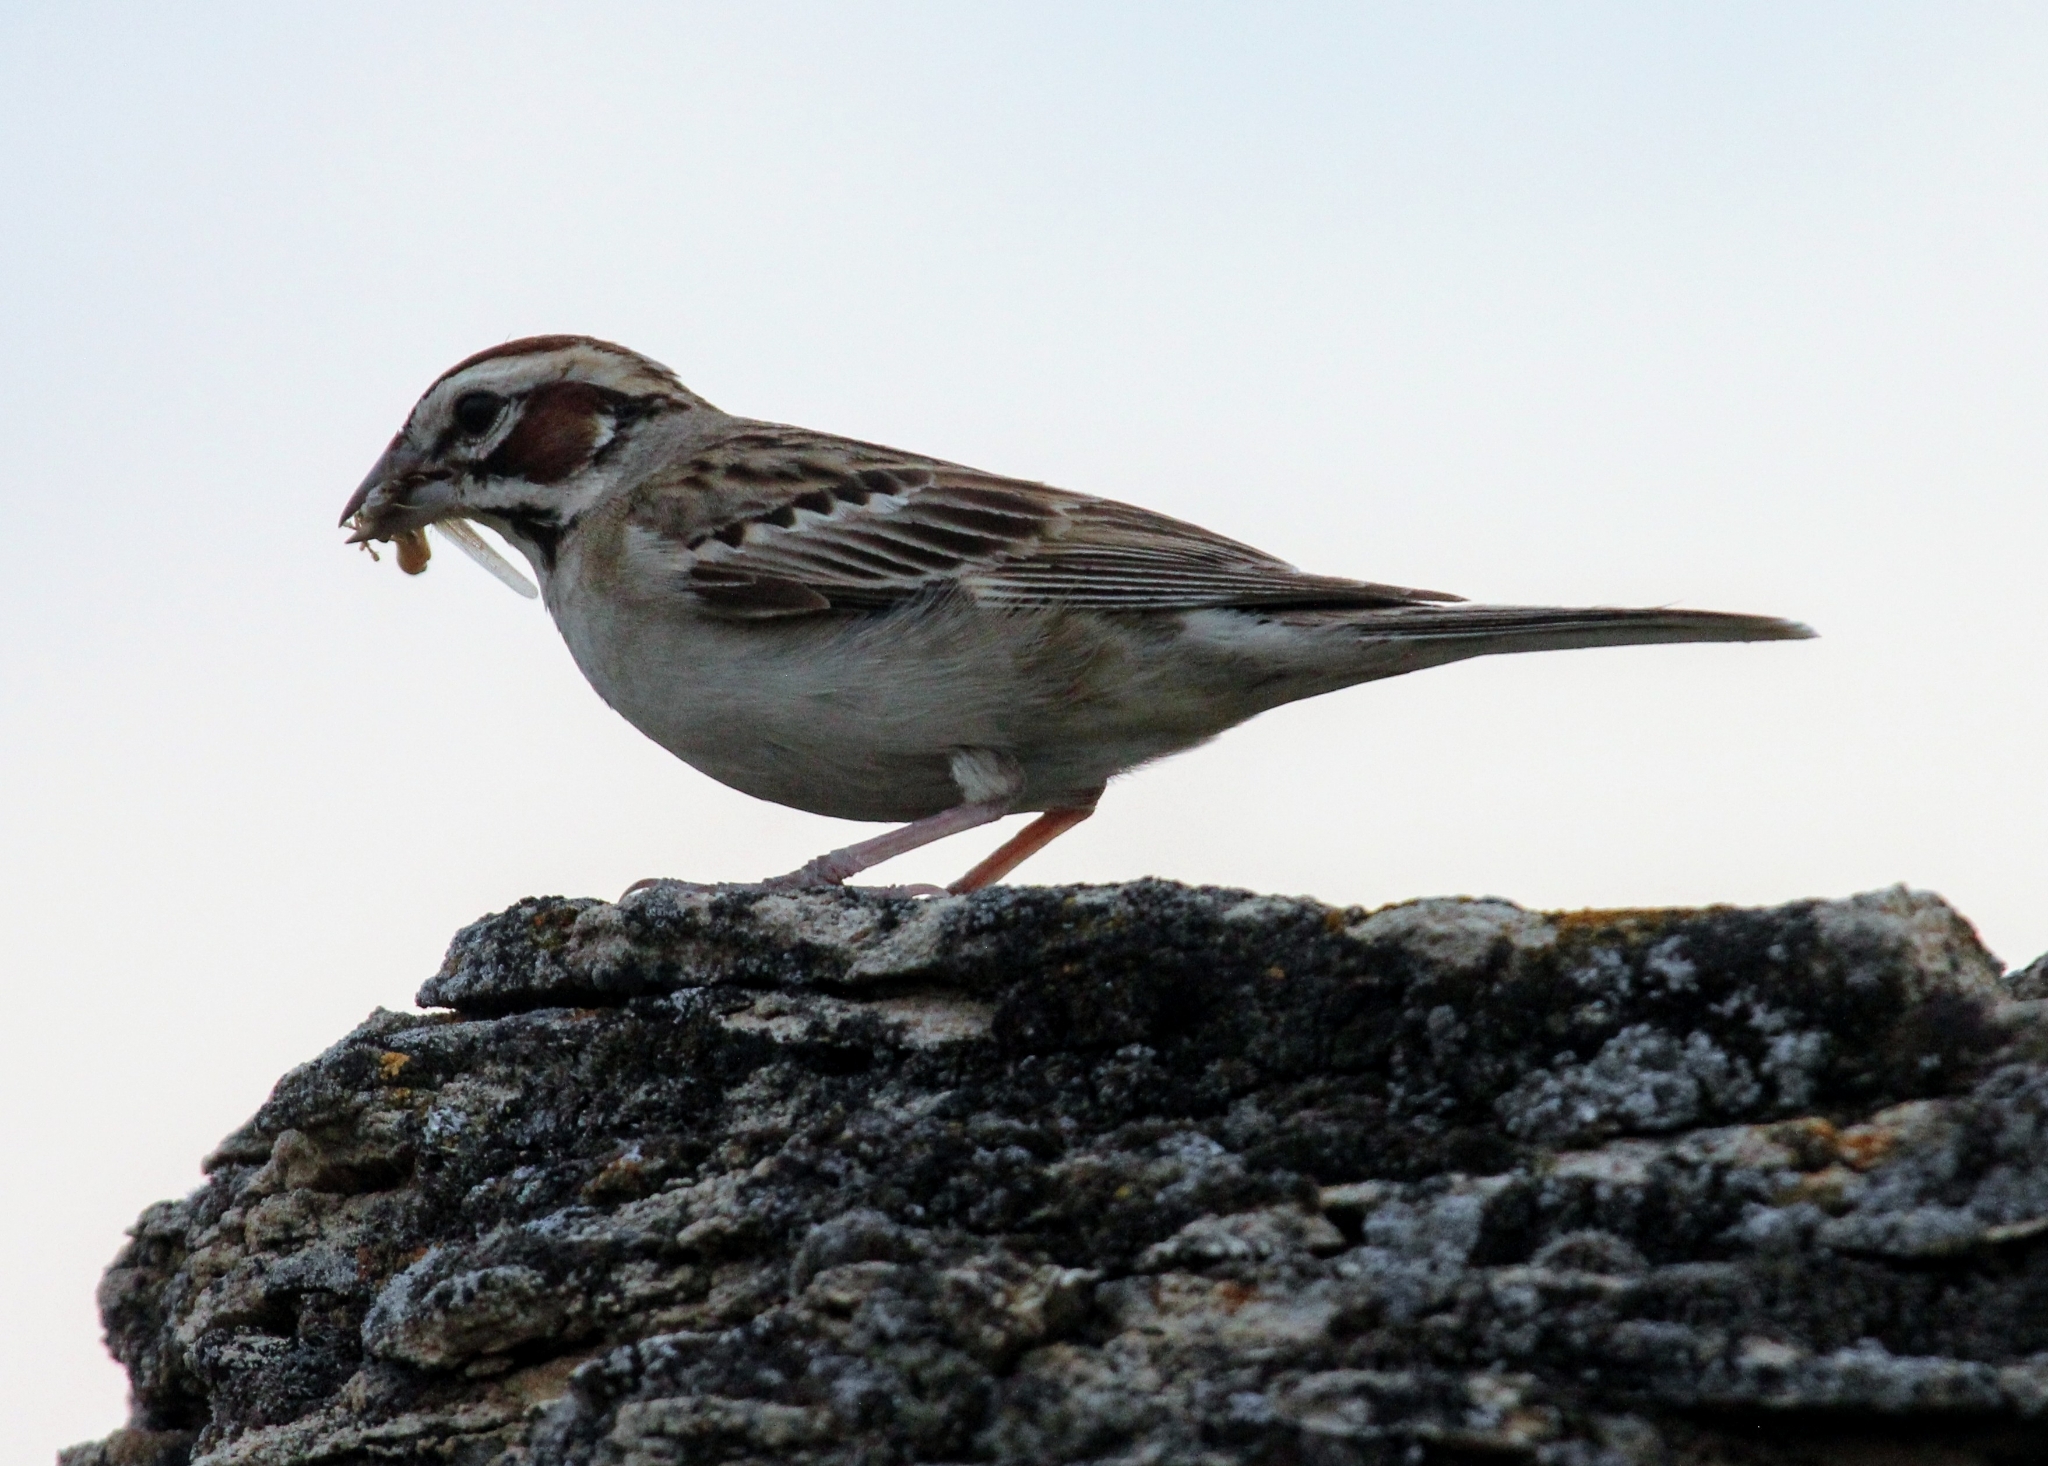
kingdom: Animalia
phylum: Chordata
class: Aves
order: Passeriformes
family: Passerellidae
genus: Chondestes
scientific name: Chondestes grammacus
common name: Lark sparrow
